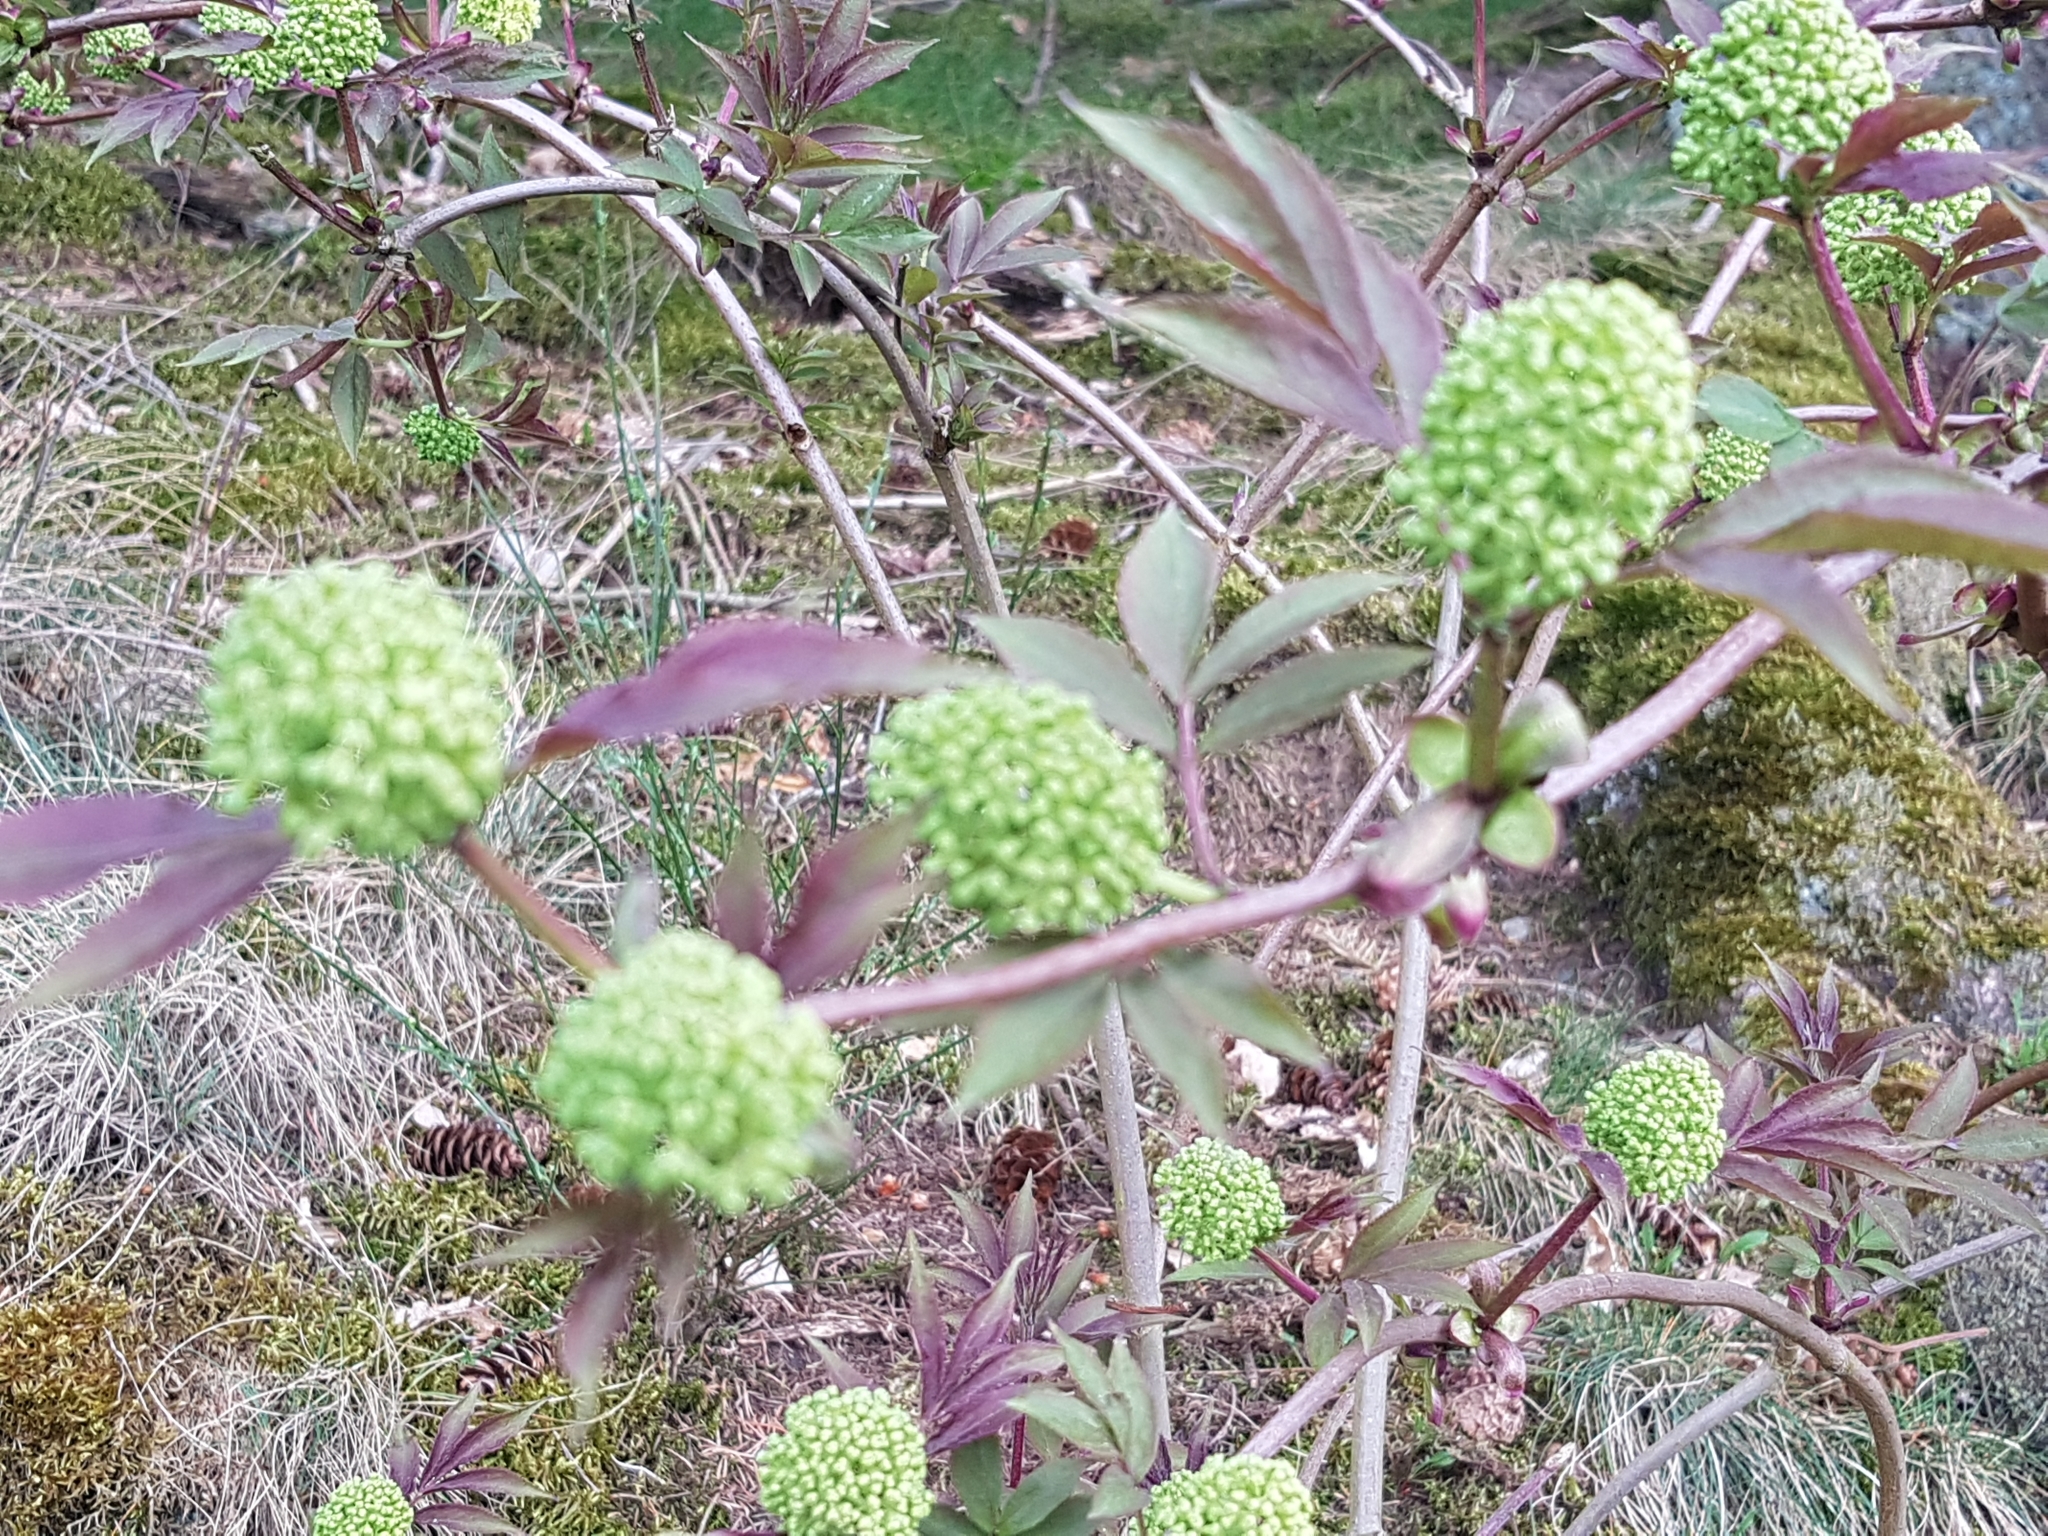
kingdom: Plantae
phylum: Tracheophyta
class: Magnoliopsida
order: Dipsacales
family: Viburnaceae
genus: Sambucus
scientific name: Sambucus racemosa
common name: Red-berried elder
